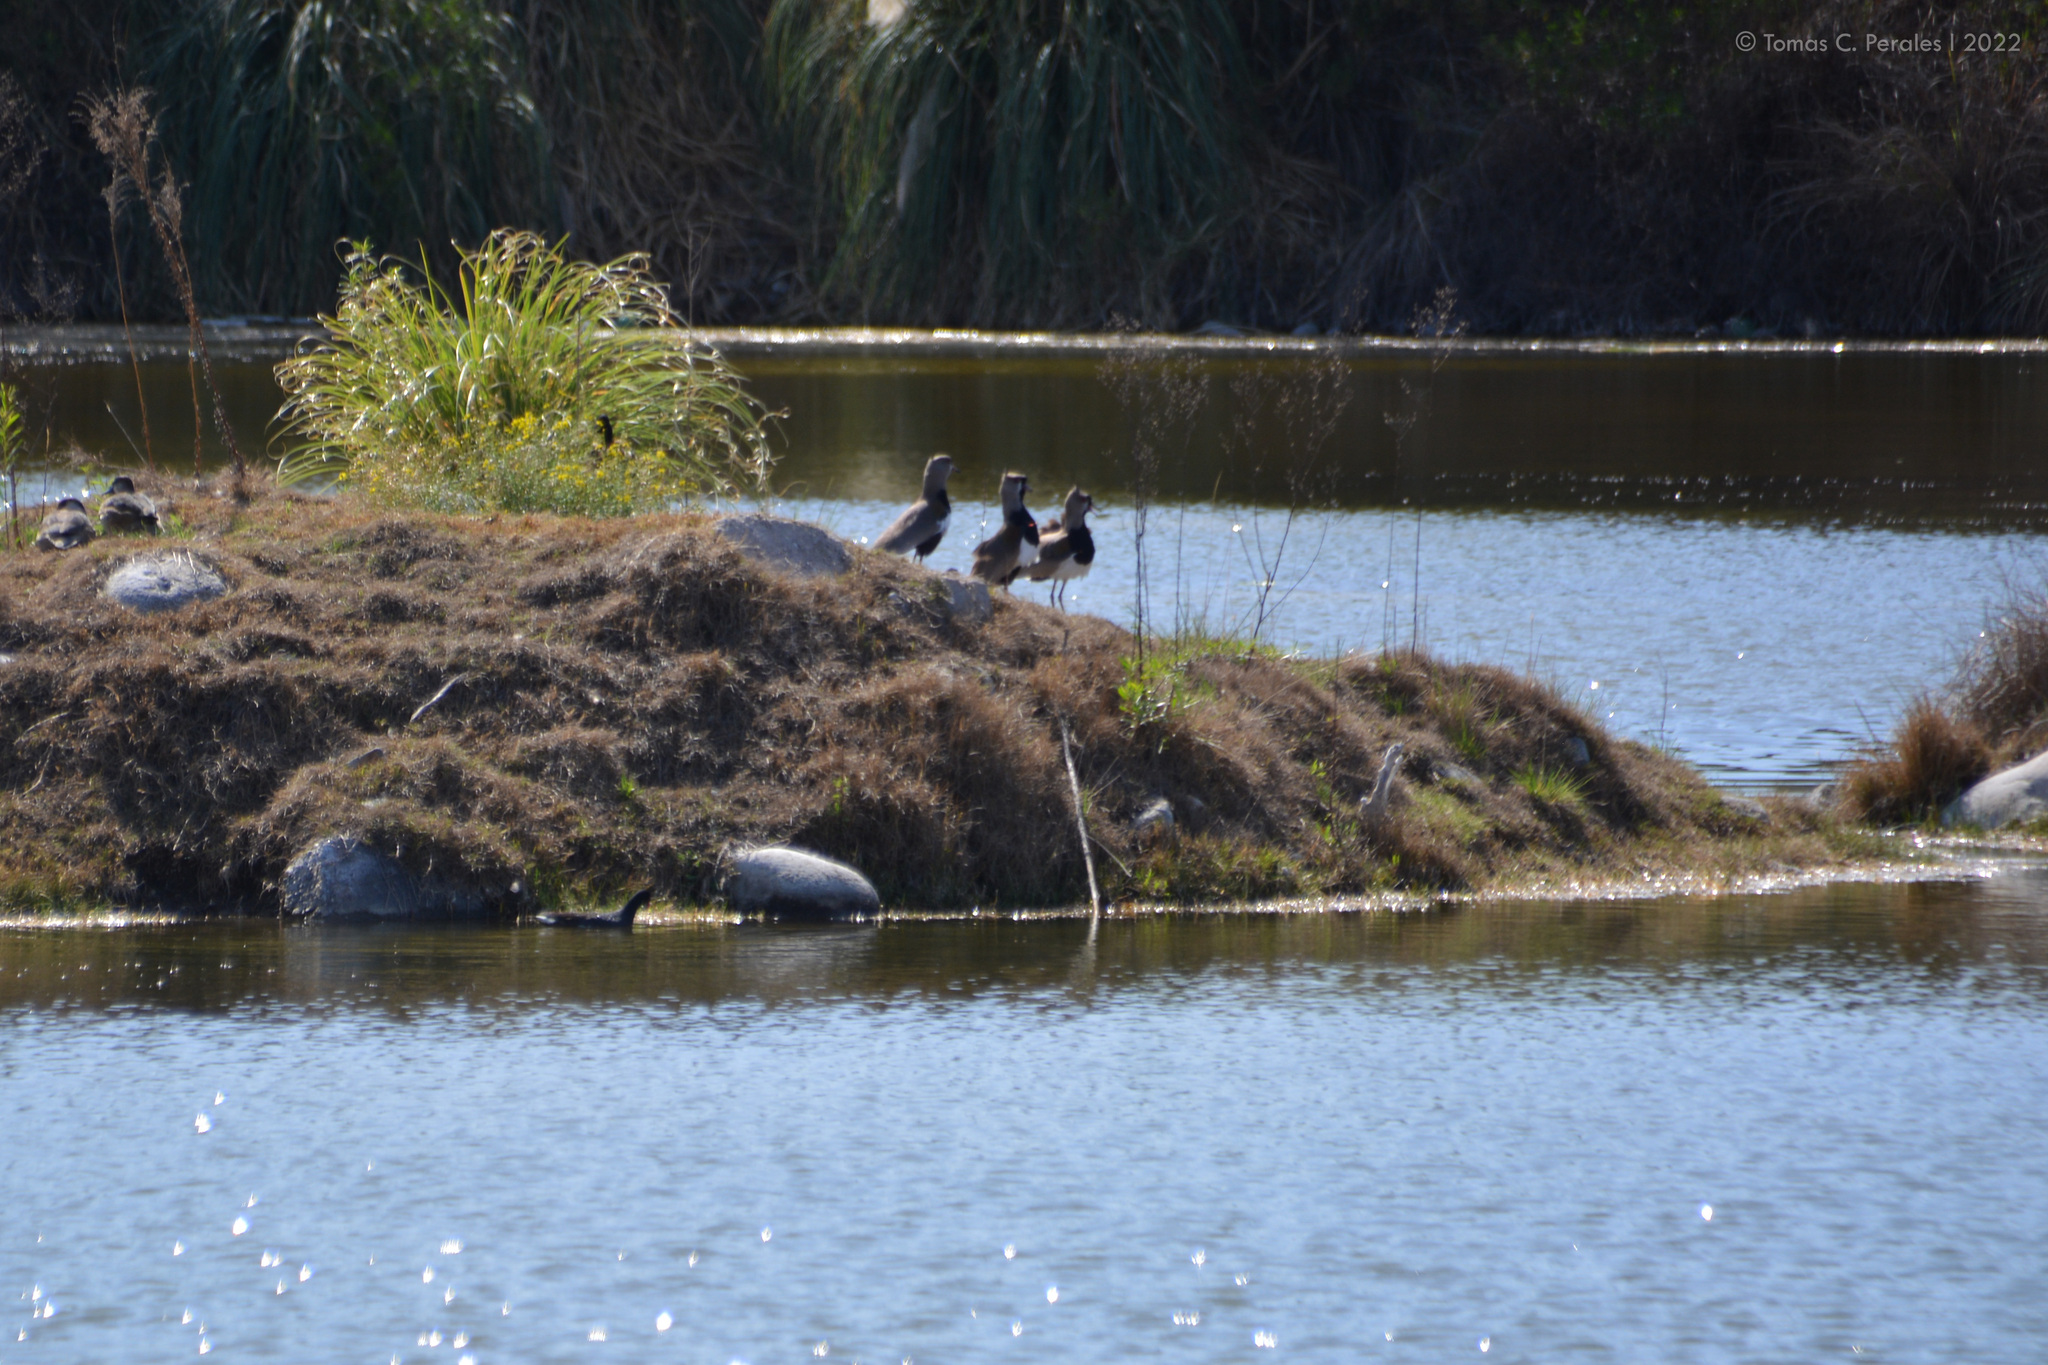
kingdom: Animalia
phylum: Chordata
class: Aves
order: Charadriiformes
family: Charadriidae
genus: Vanellus
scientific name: Vanellus chilensis
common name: Southern lapwing
